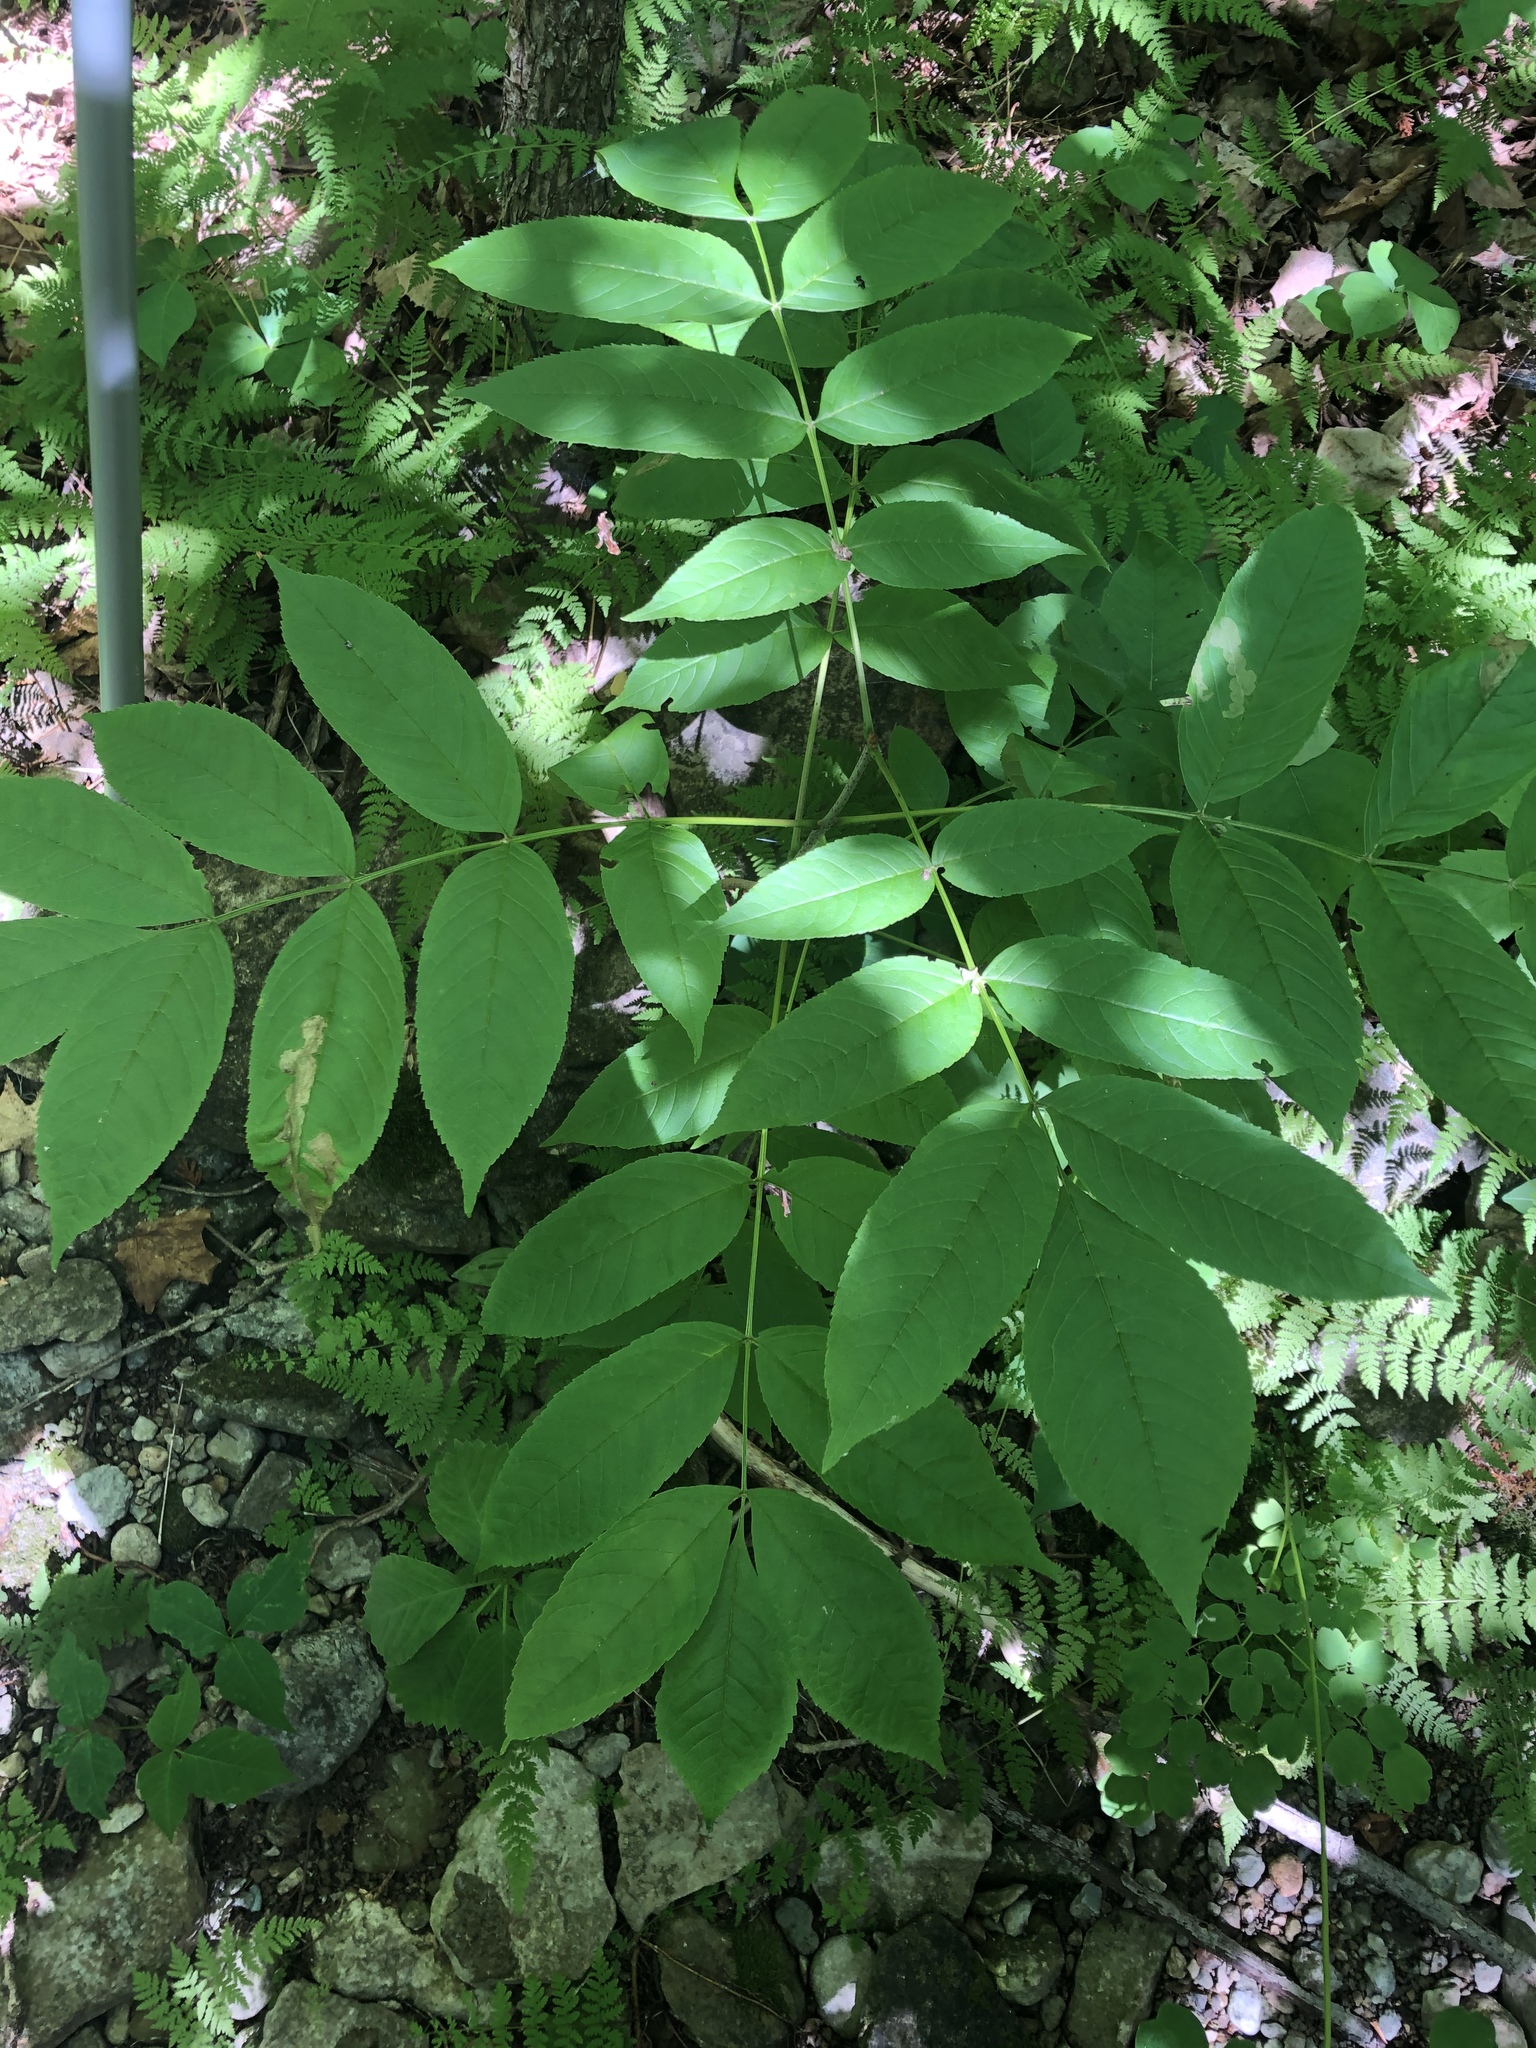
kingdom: Plantae
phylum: Tracheophyta
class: Magnoliopsida
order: Lamiales
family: Oleaceae
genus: Fraxinus
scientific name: Fraxinus nigra
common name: Black ash
